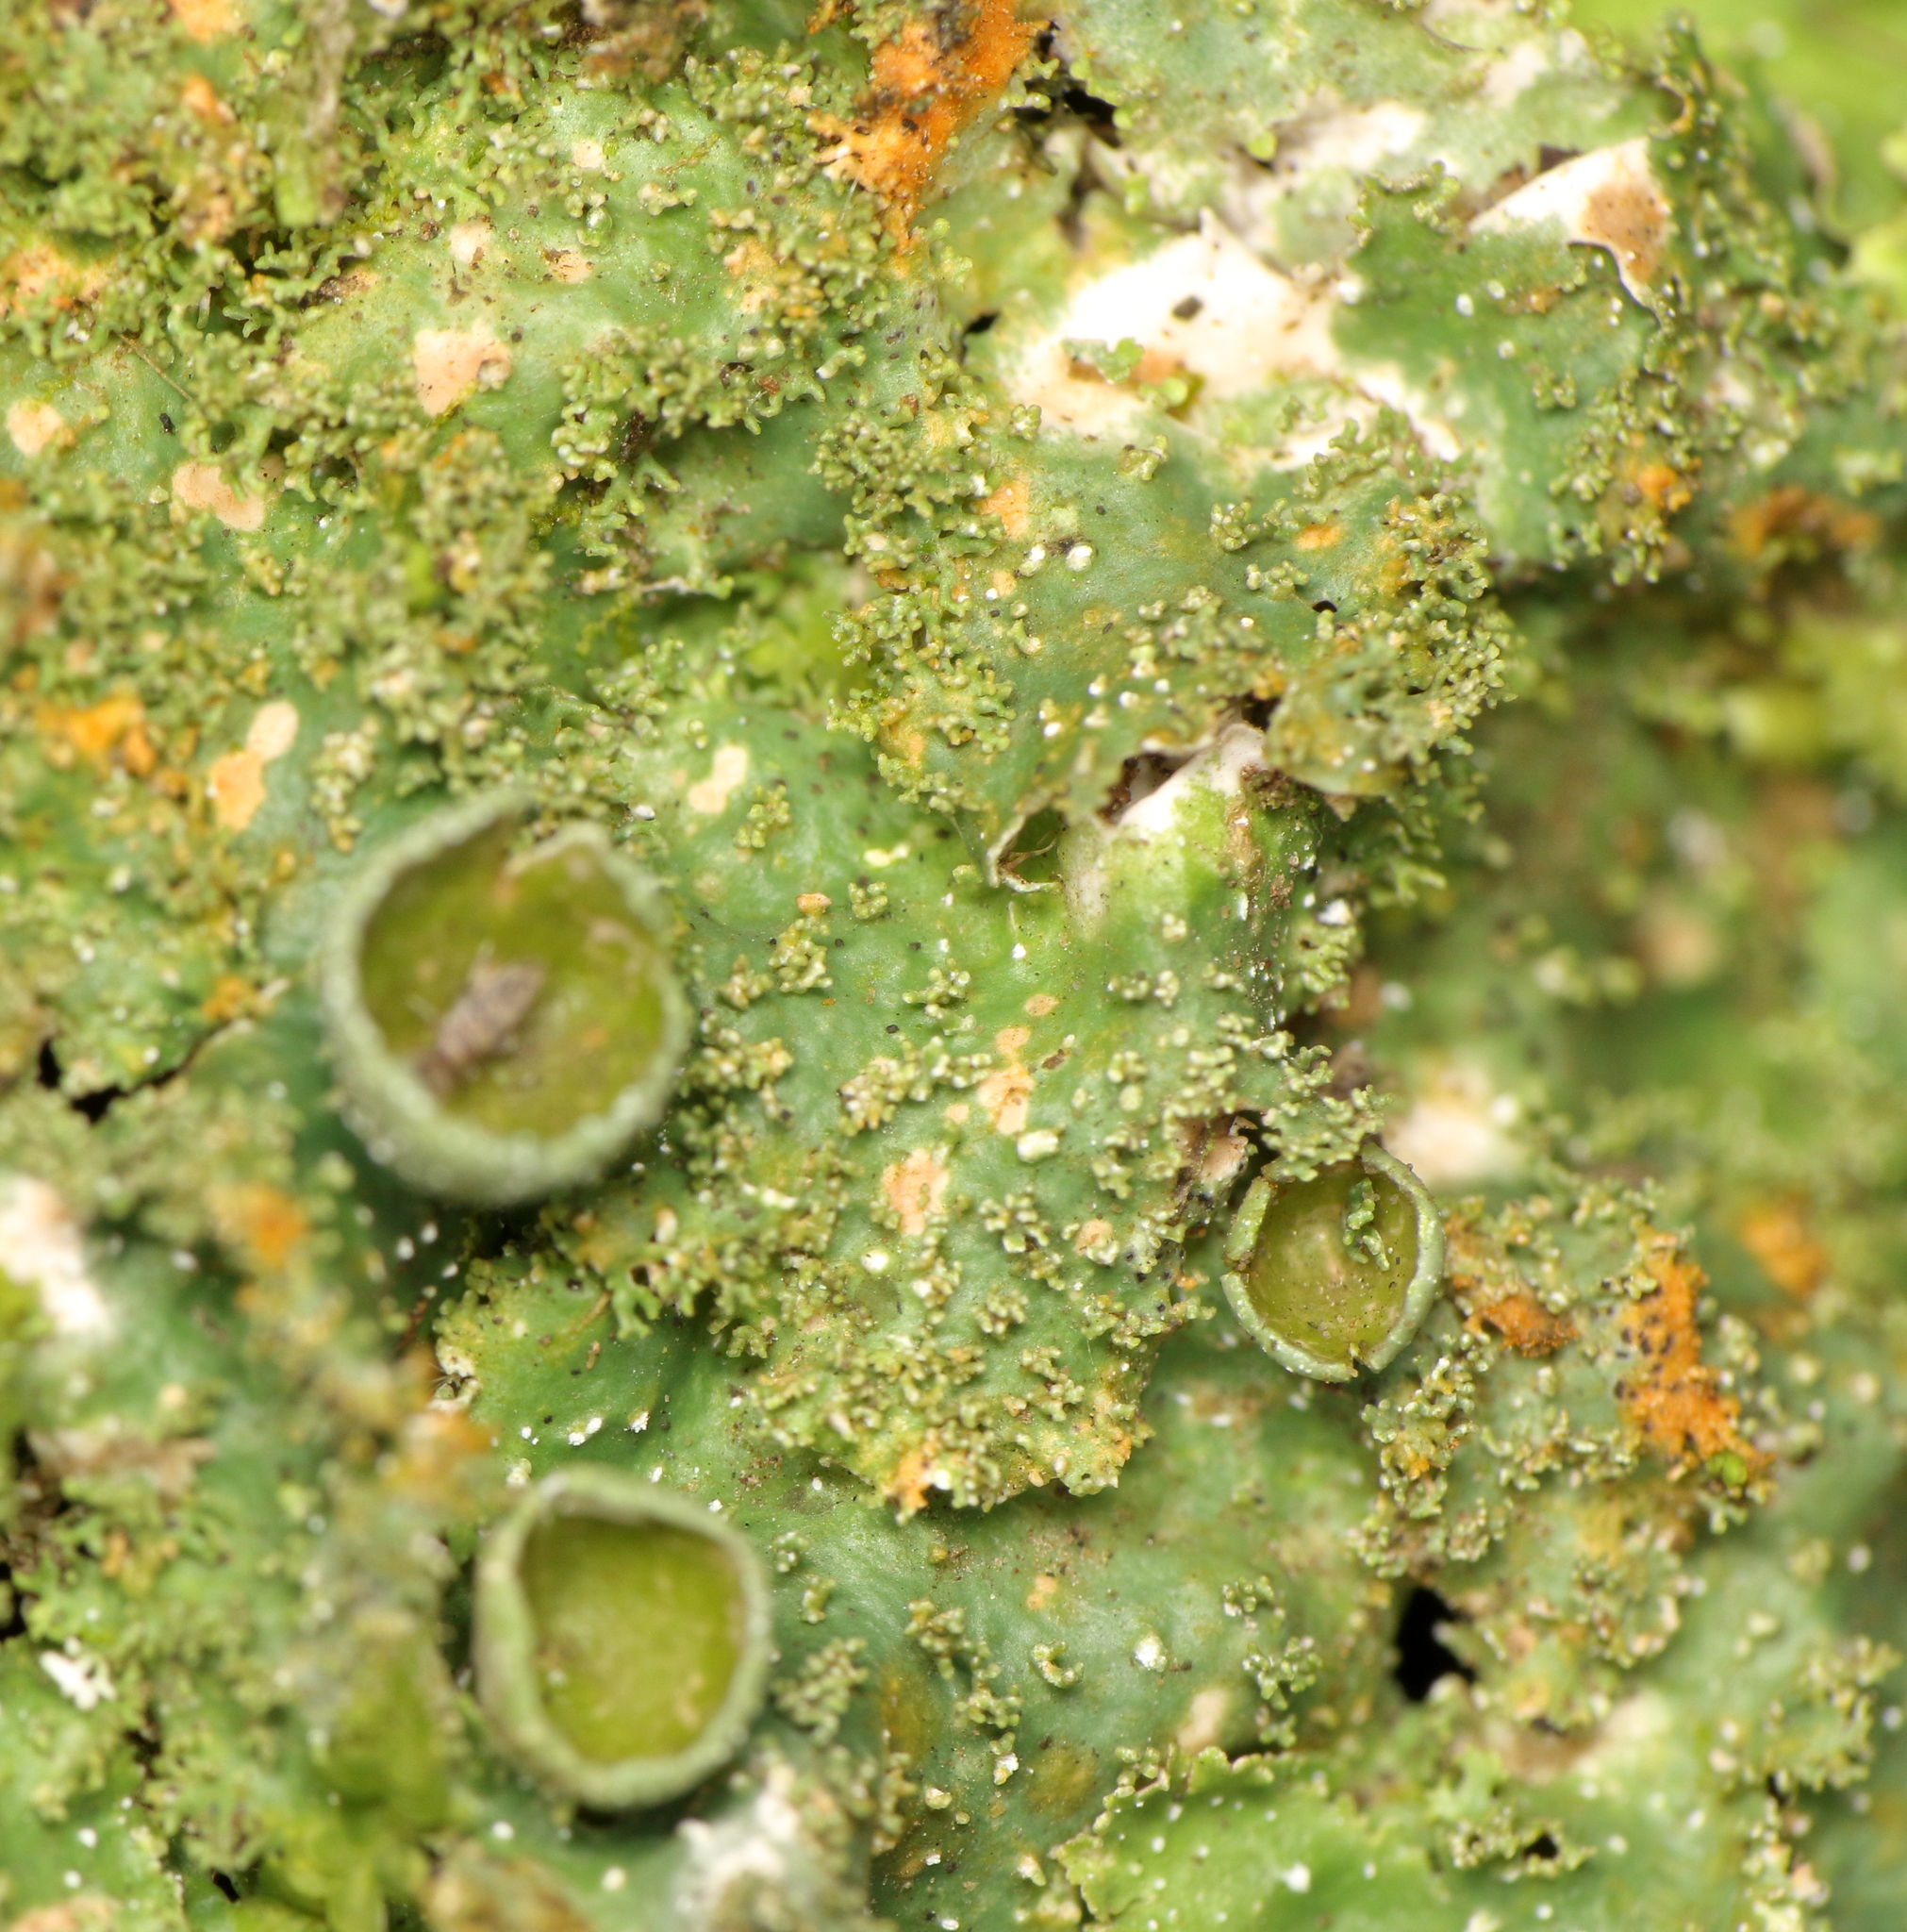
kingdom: Fungi
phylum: Ascomycota
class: Lecanoromycetes
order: Lecanorales
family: Parmeliaceae
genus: Punctelia
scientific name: Punctelia constantimontium
